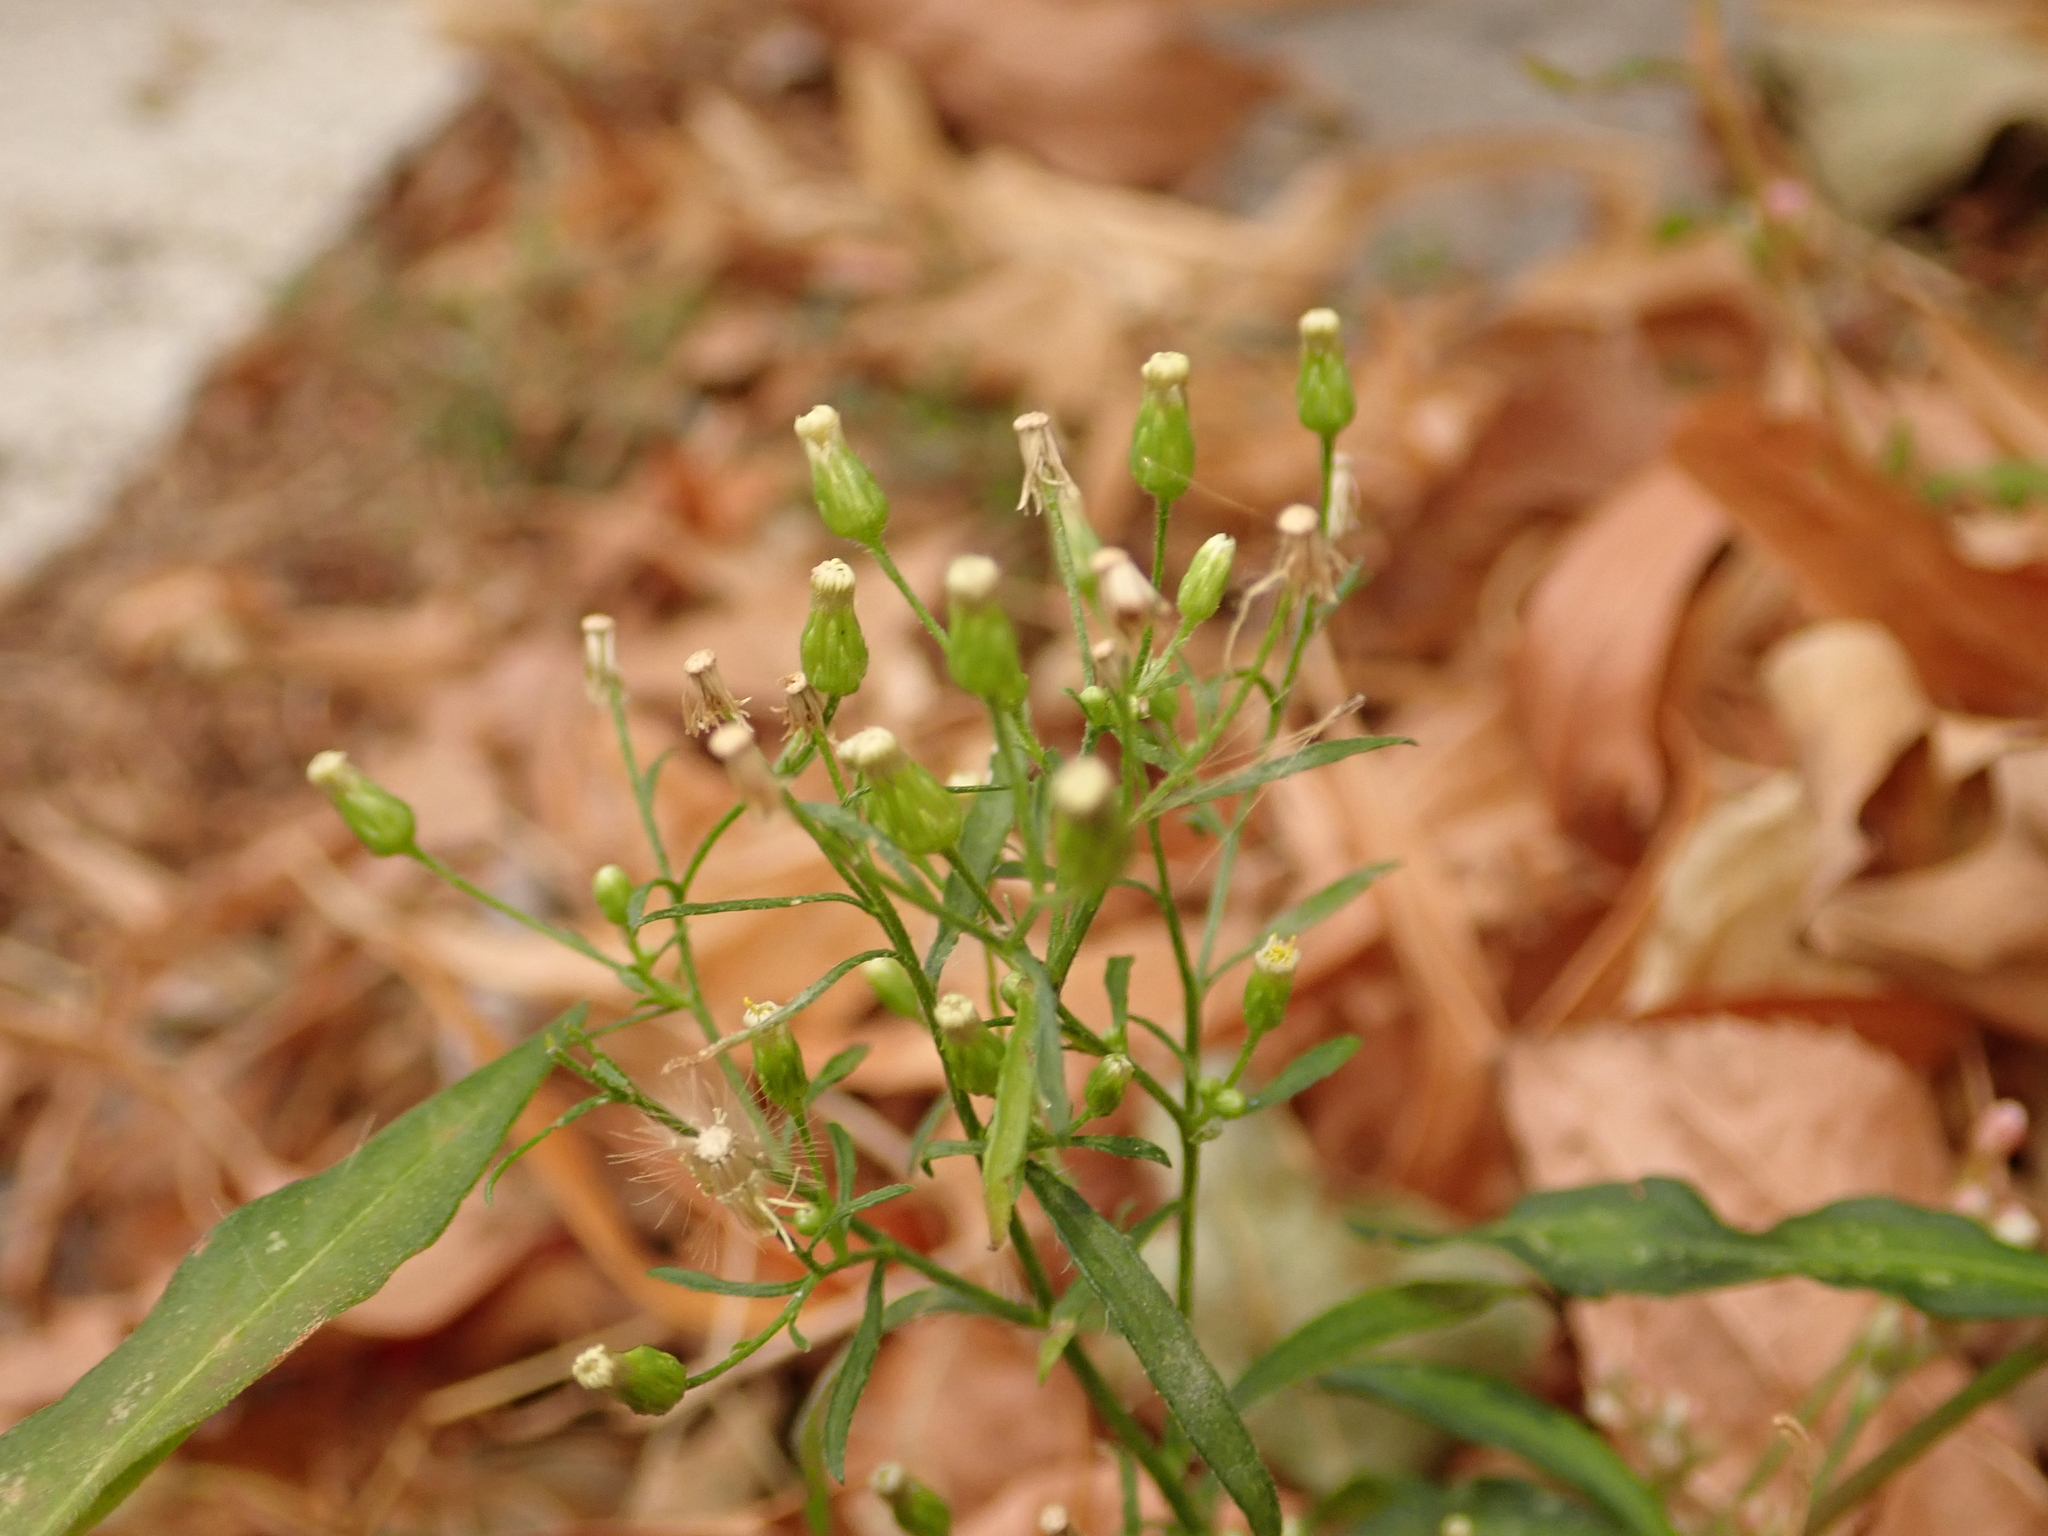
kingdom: Plantae
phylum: Tracheophyta
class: Magnoliopsida
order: Asterales
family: Asteraceae
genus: Erigeron
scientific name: Erigeron canadensis
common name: Canadian fleabane
